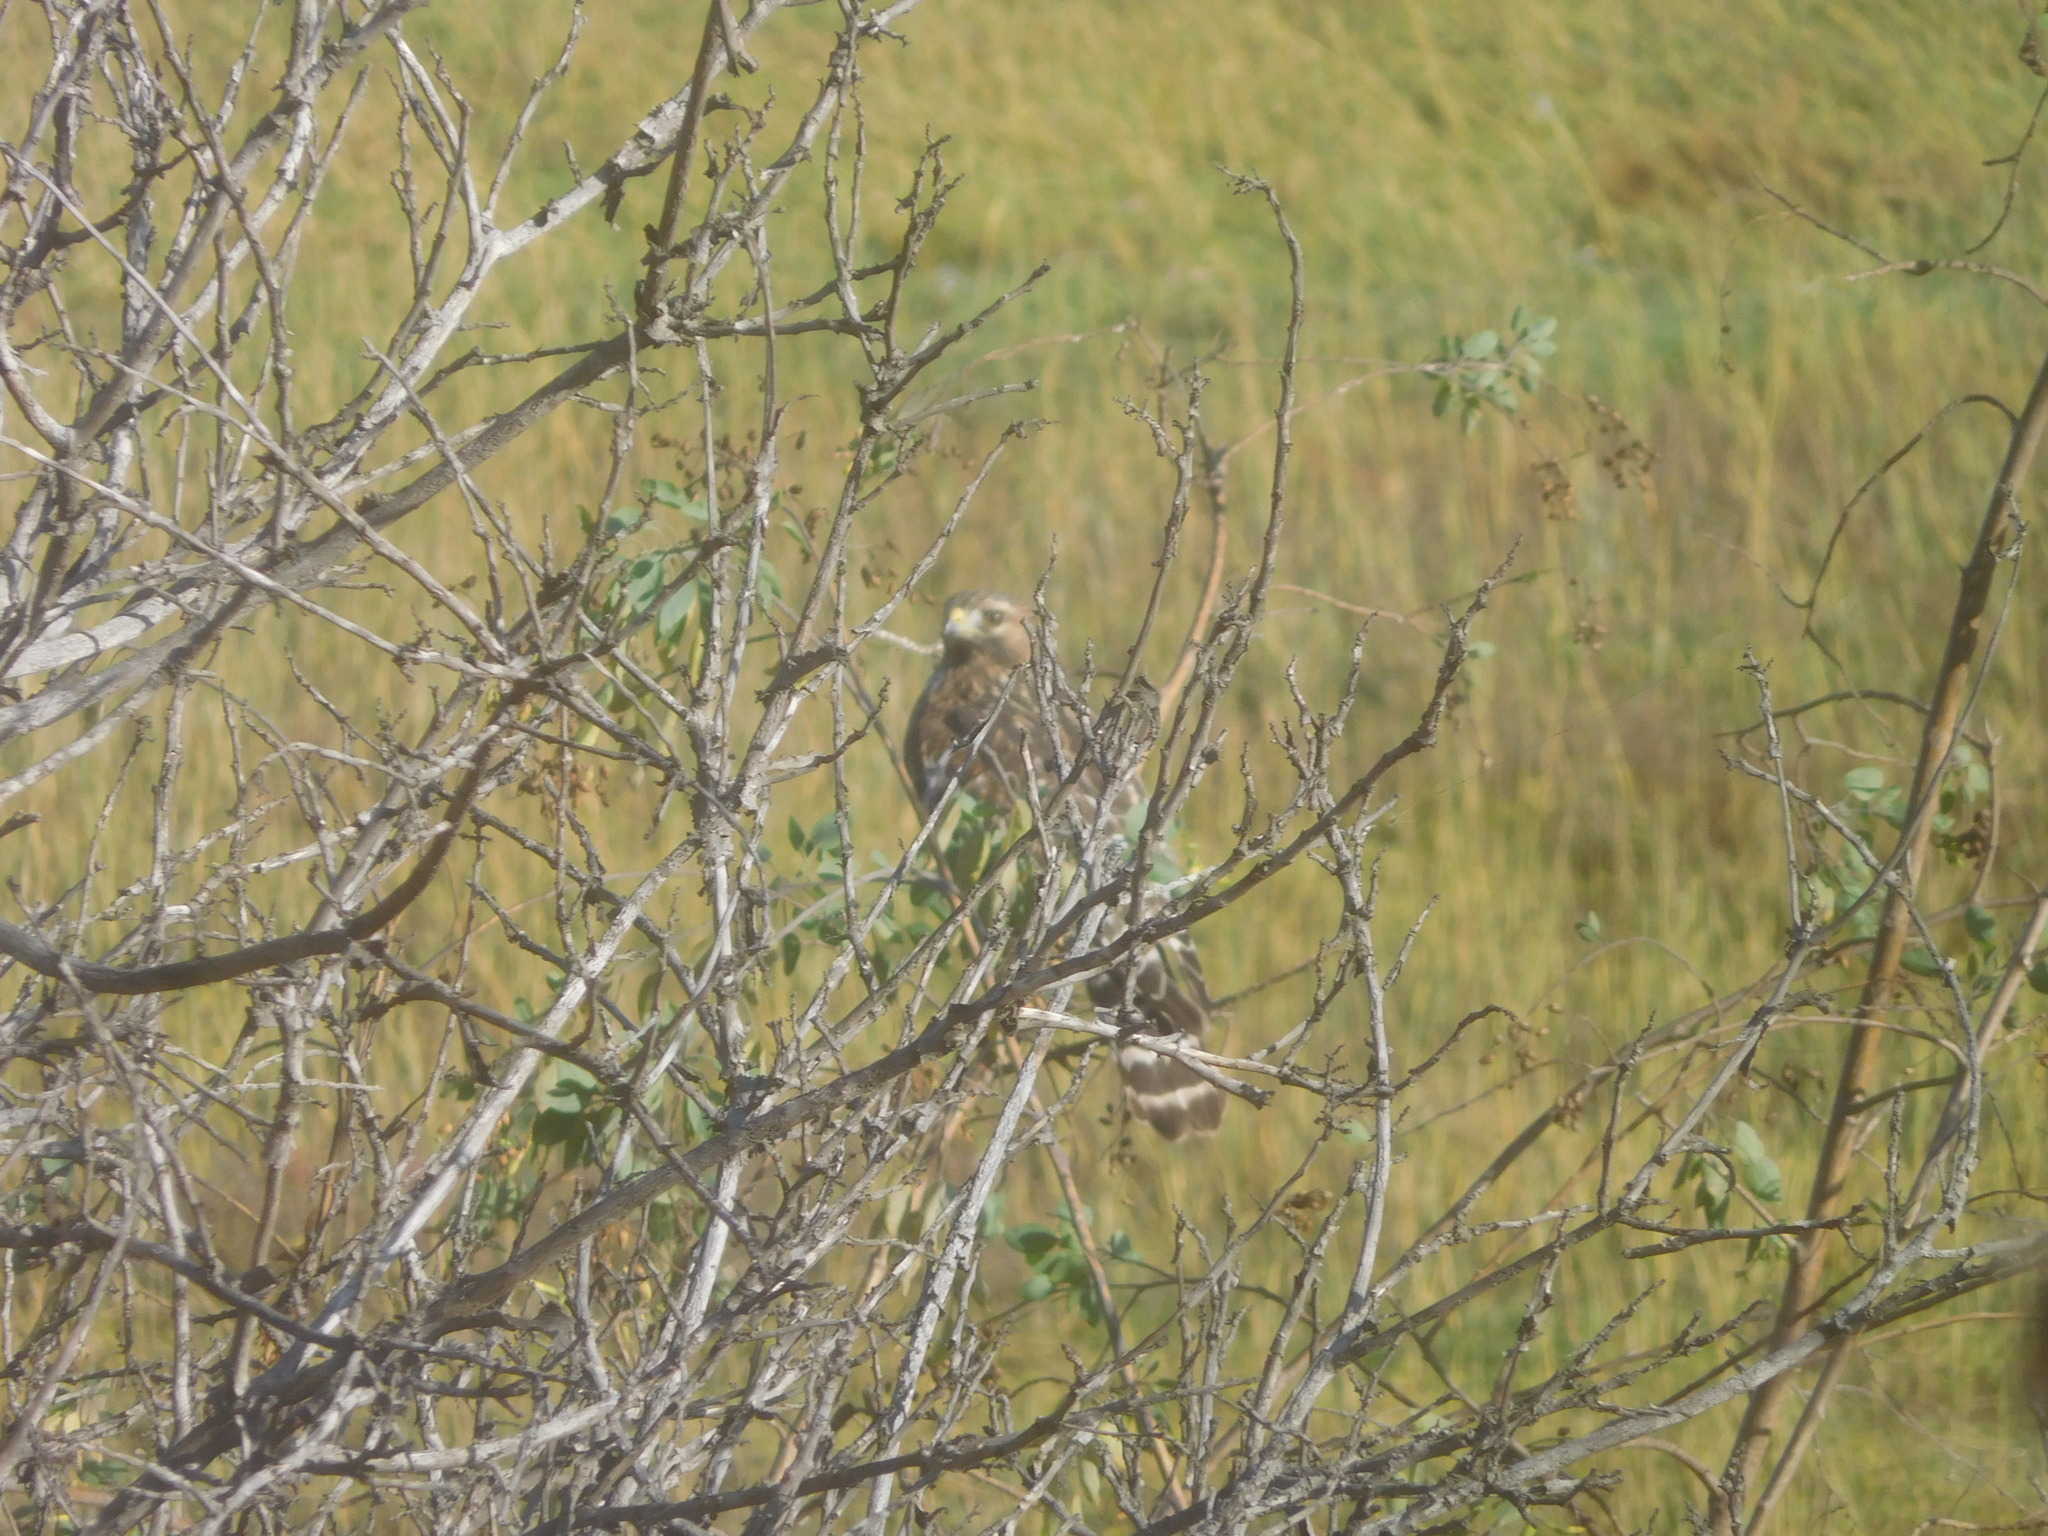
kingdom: Animalia
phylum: Chordata
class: Aves
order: Accipitriformes
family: Accipitridae
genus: Buteo
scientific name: Buteo lineatus
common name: Red-shouldered hawk
